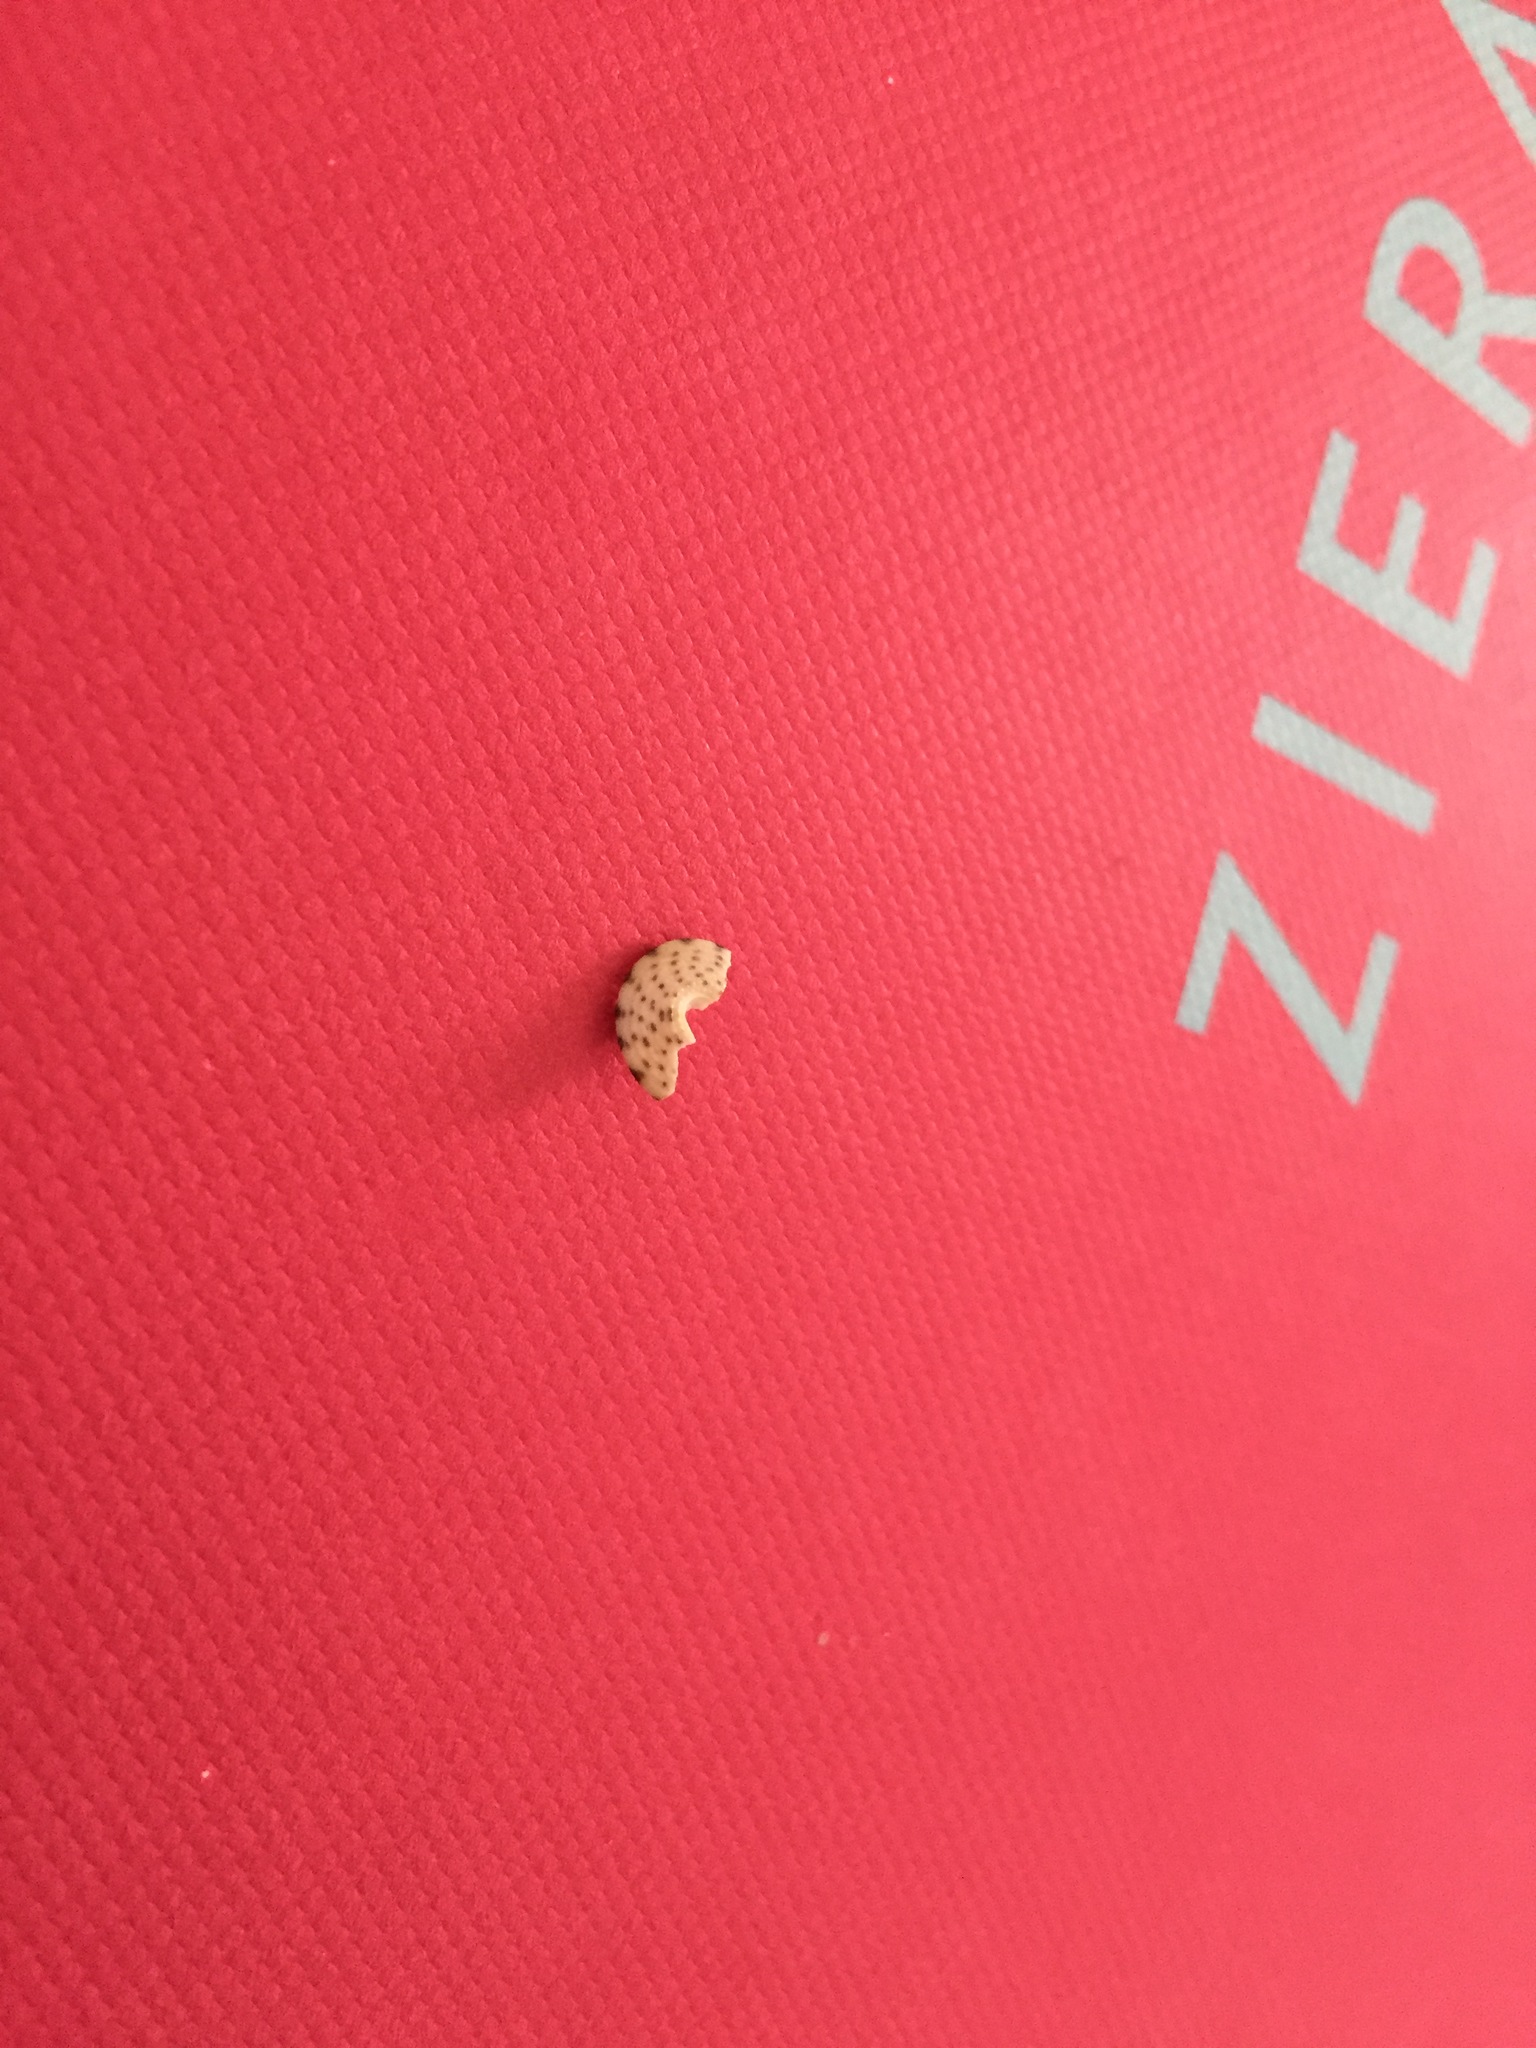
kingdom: Animalia
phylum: Mollusca
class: Gastropoda
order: Trochida
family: Trochidae
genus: Coelotrochus
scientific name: Coelotrochus tiaratus
